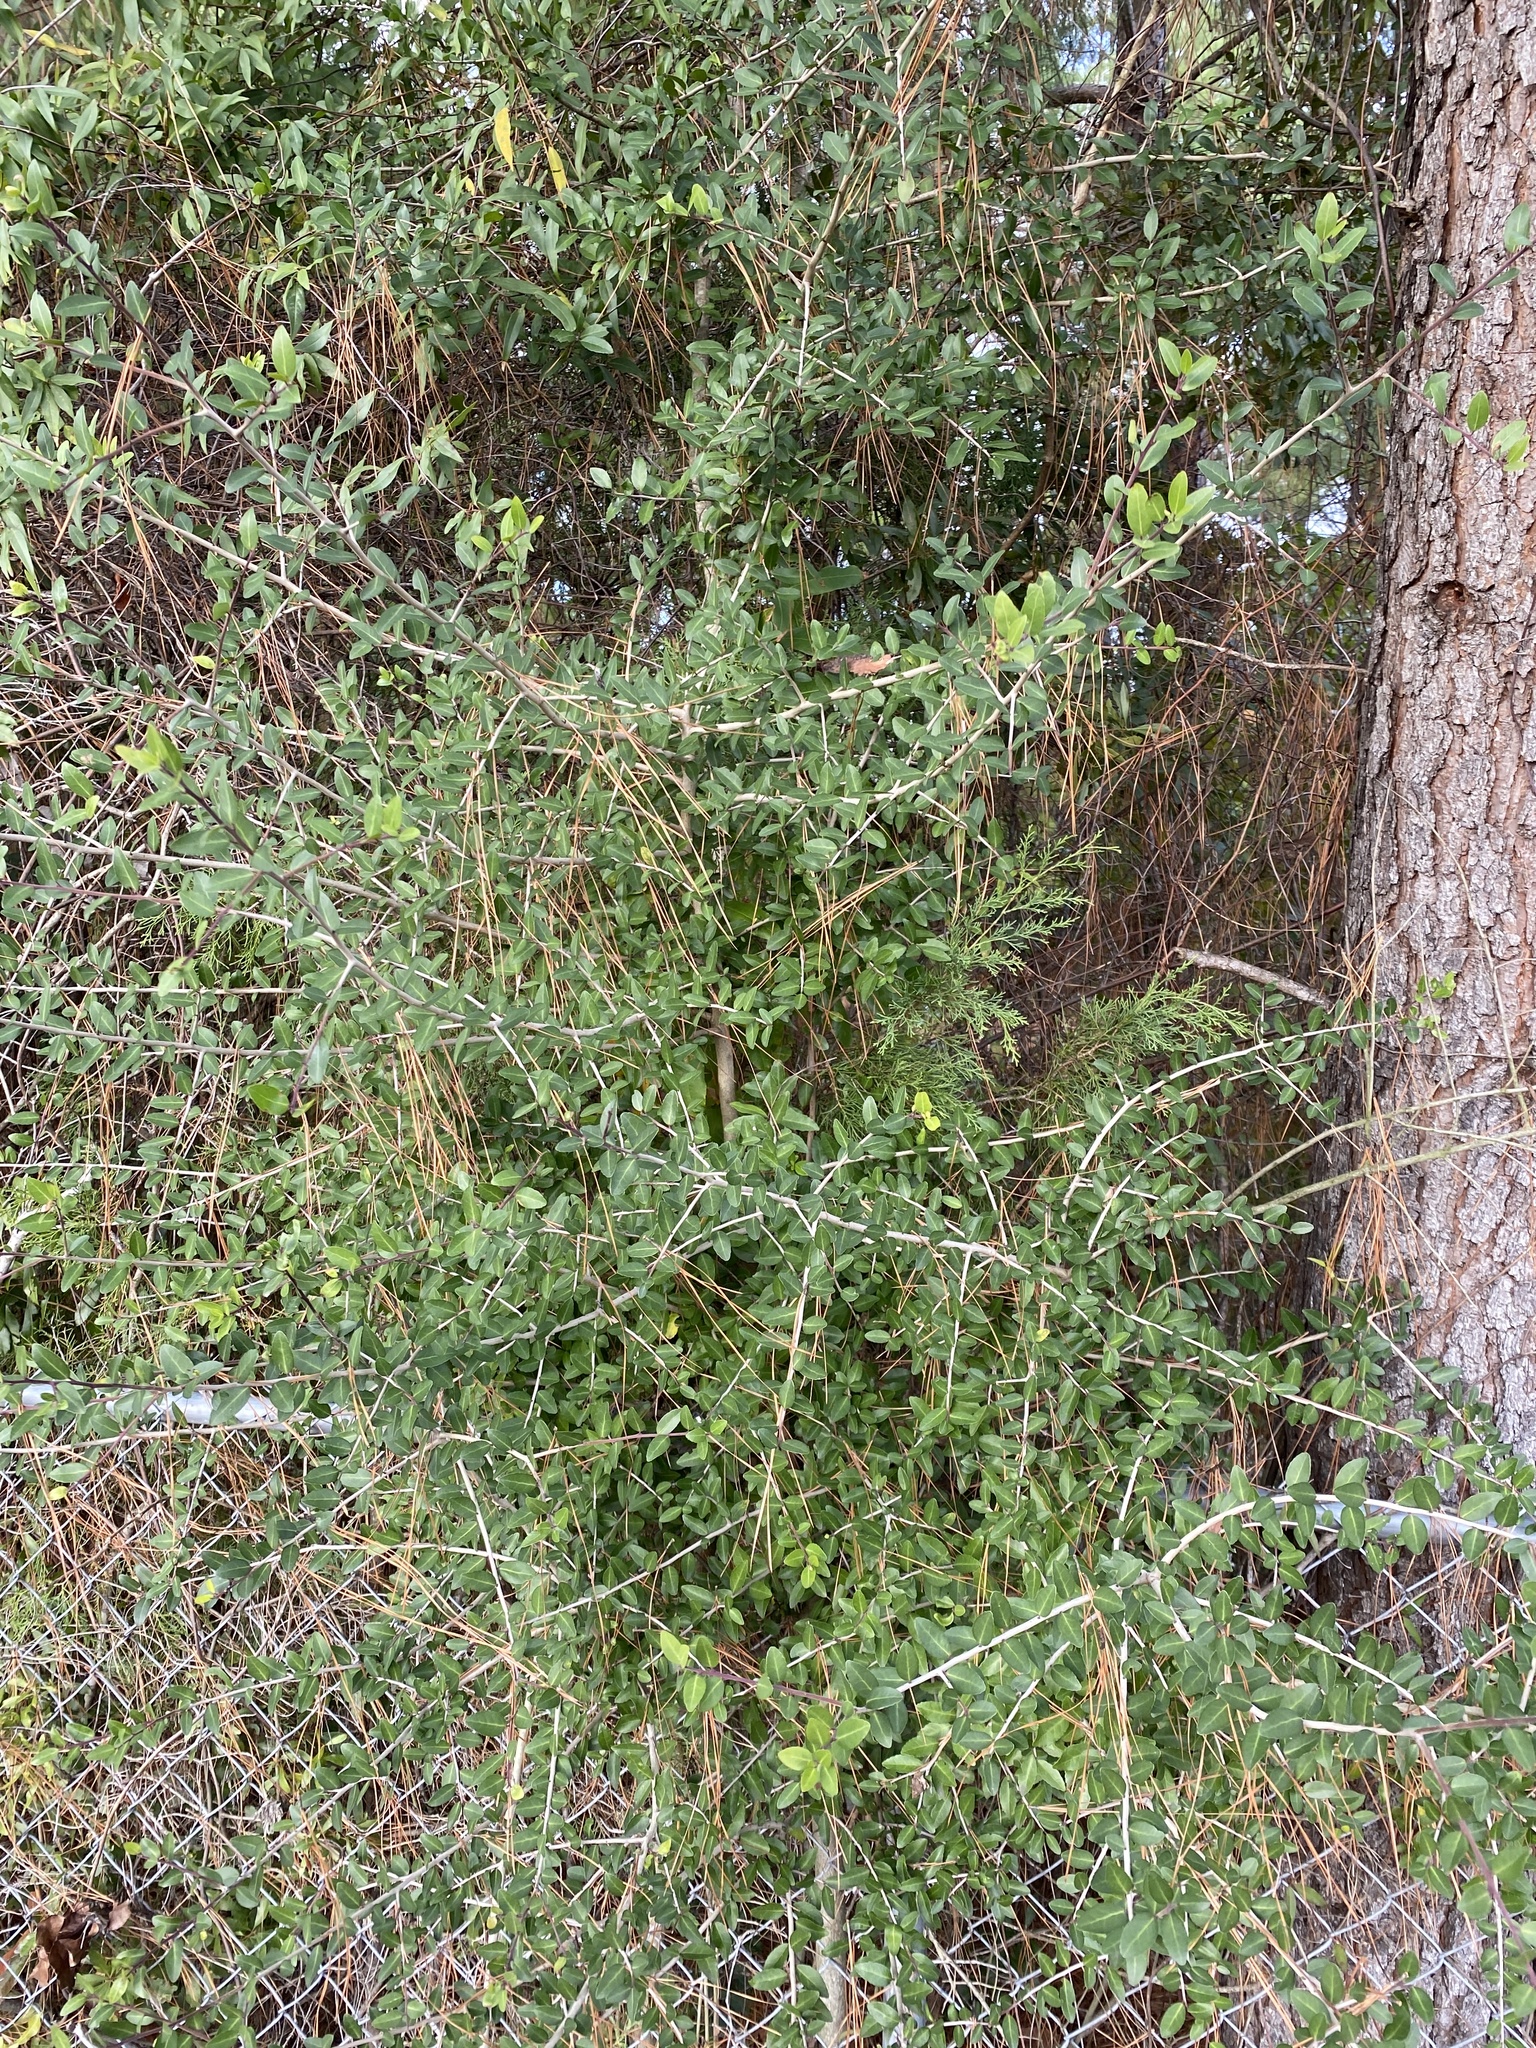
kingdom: Plantae
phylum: Tracheophyta
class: Magnoliopsida
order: Aquifoliales
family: Aquifoliaceae
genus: Ilex
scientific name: Ilex vomitoria
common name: Yaupon holly
